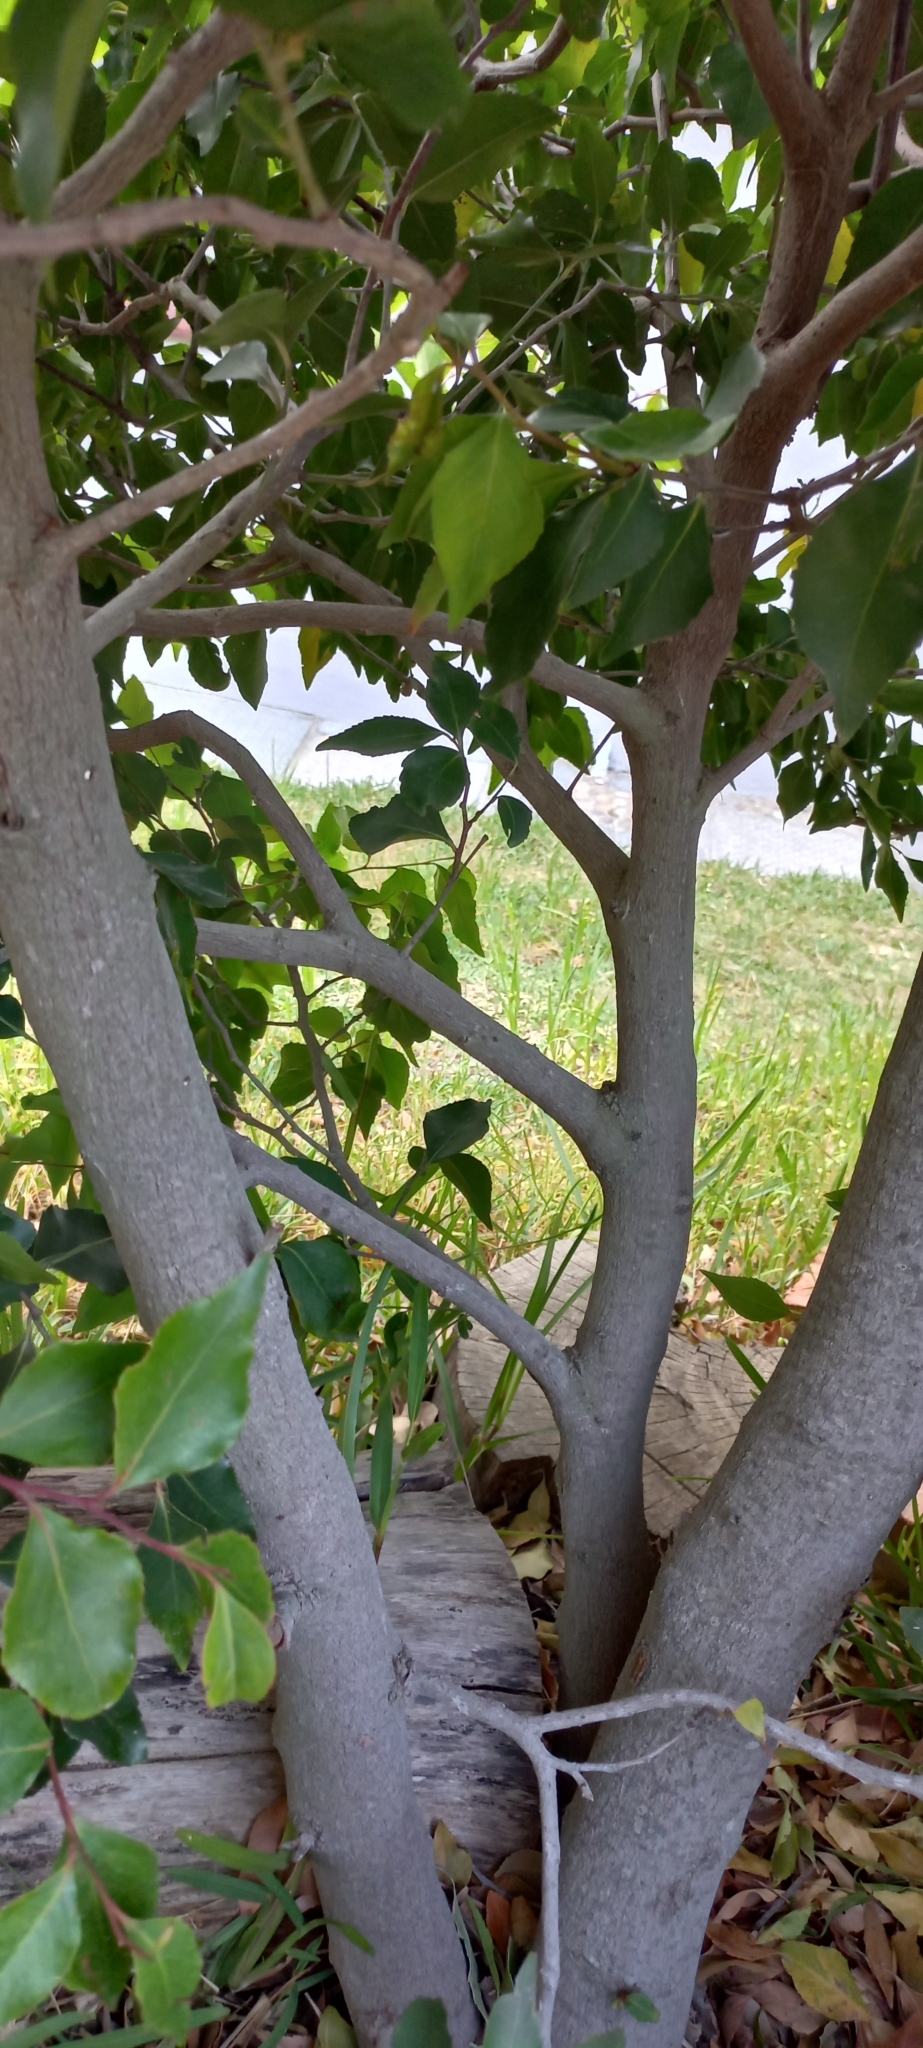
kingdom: Plantae
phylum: Tracheophyta
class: Magnoliopsida
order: Celastrales
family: Celastraceae
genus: Gymnosporia
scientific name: Gymnosporia acuminata
